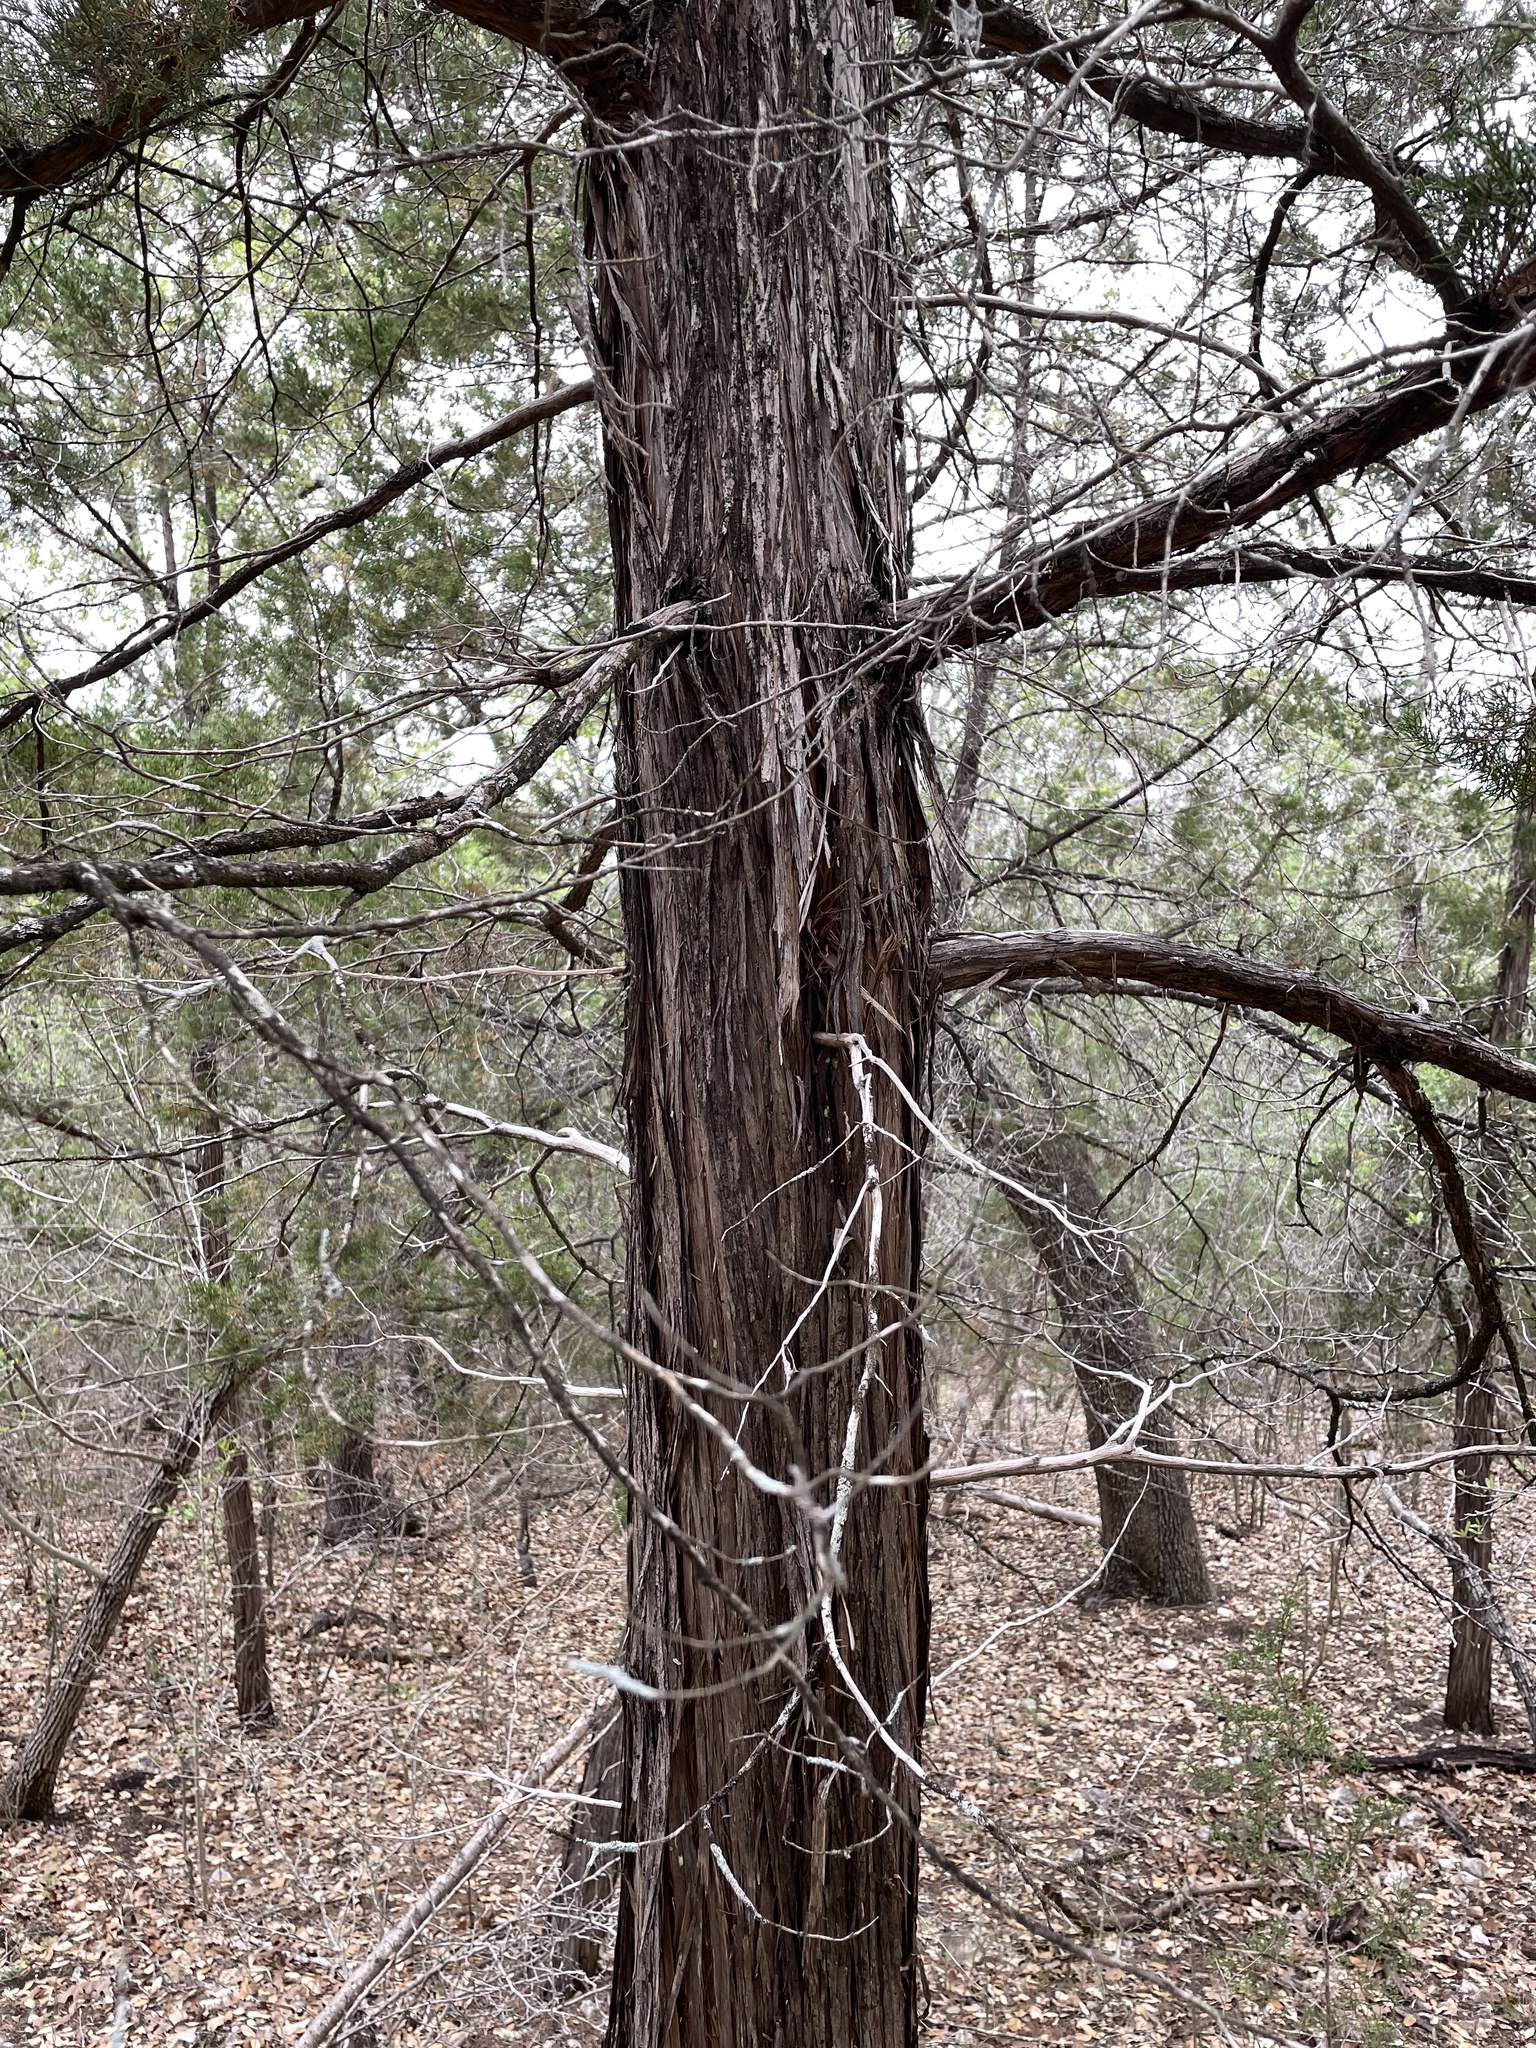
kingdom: Plantae
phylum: Tracheophyta
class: Pinopsida
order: Pinales
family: Cupressaceae
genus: Juniperus
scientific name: Juniperus ashei
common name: Mexican juniper
